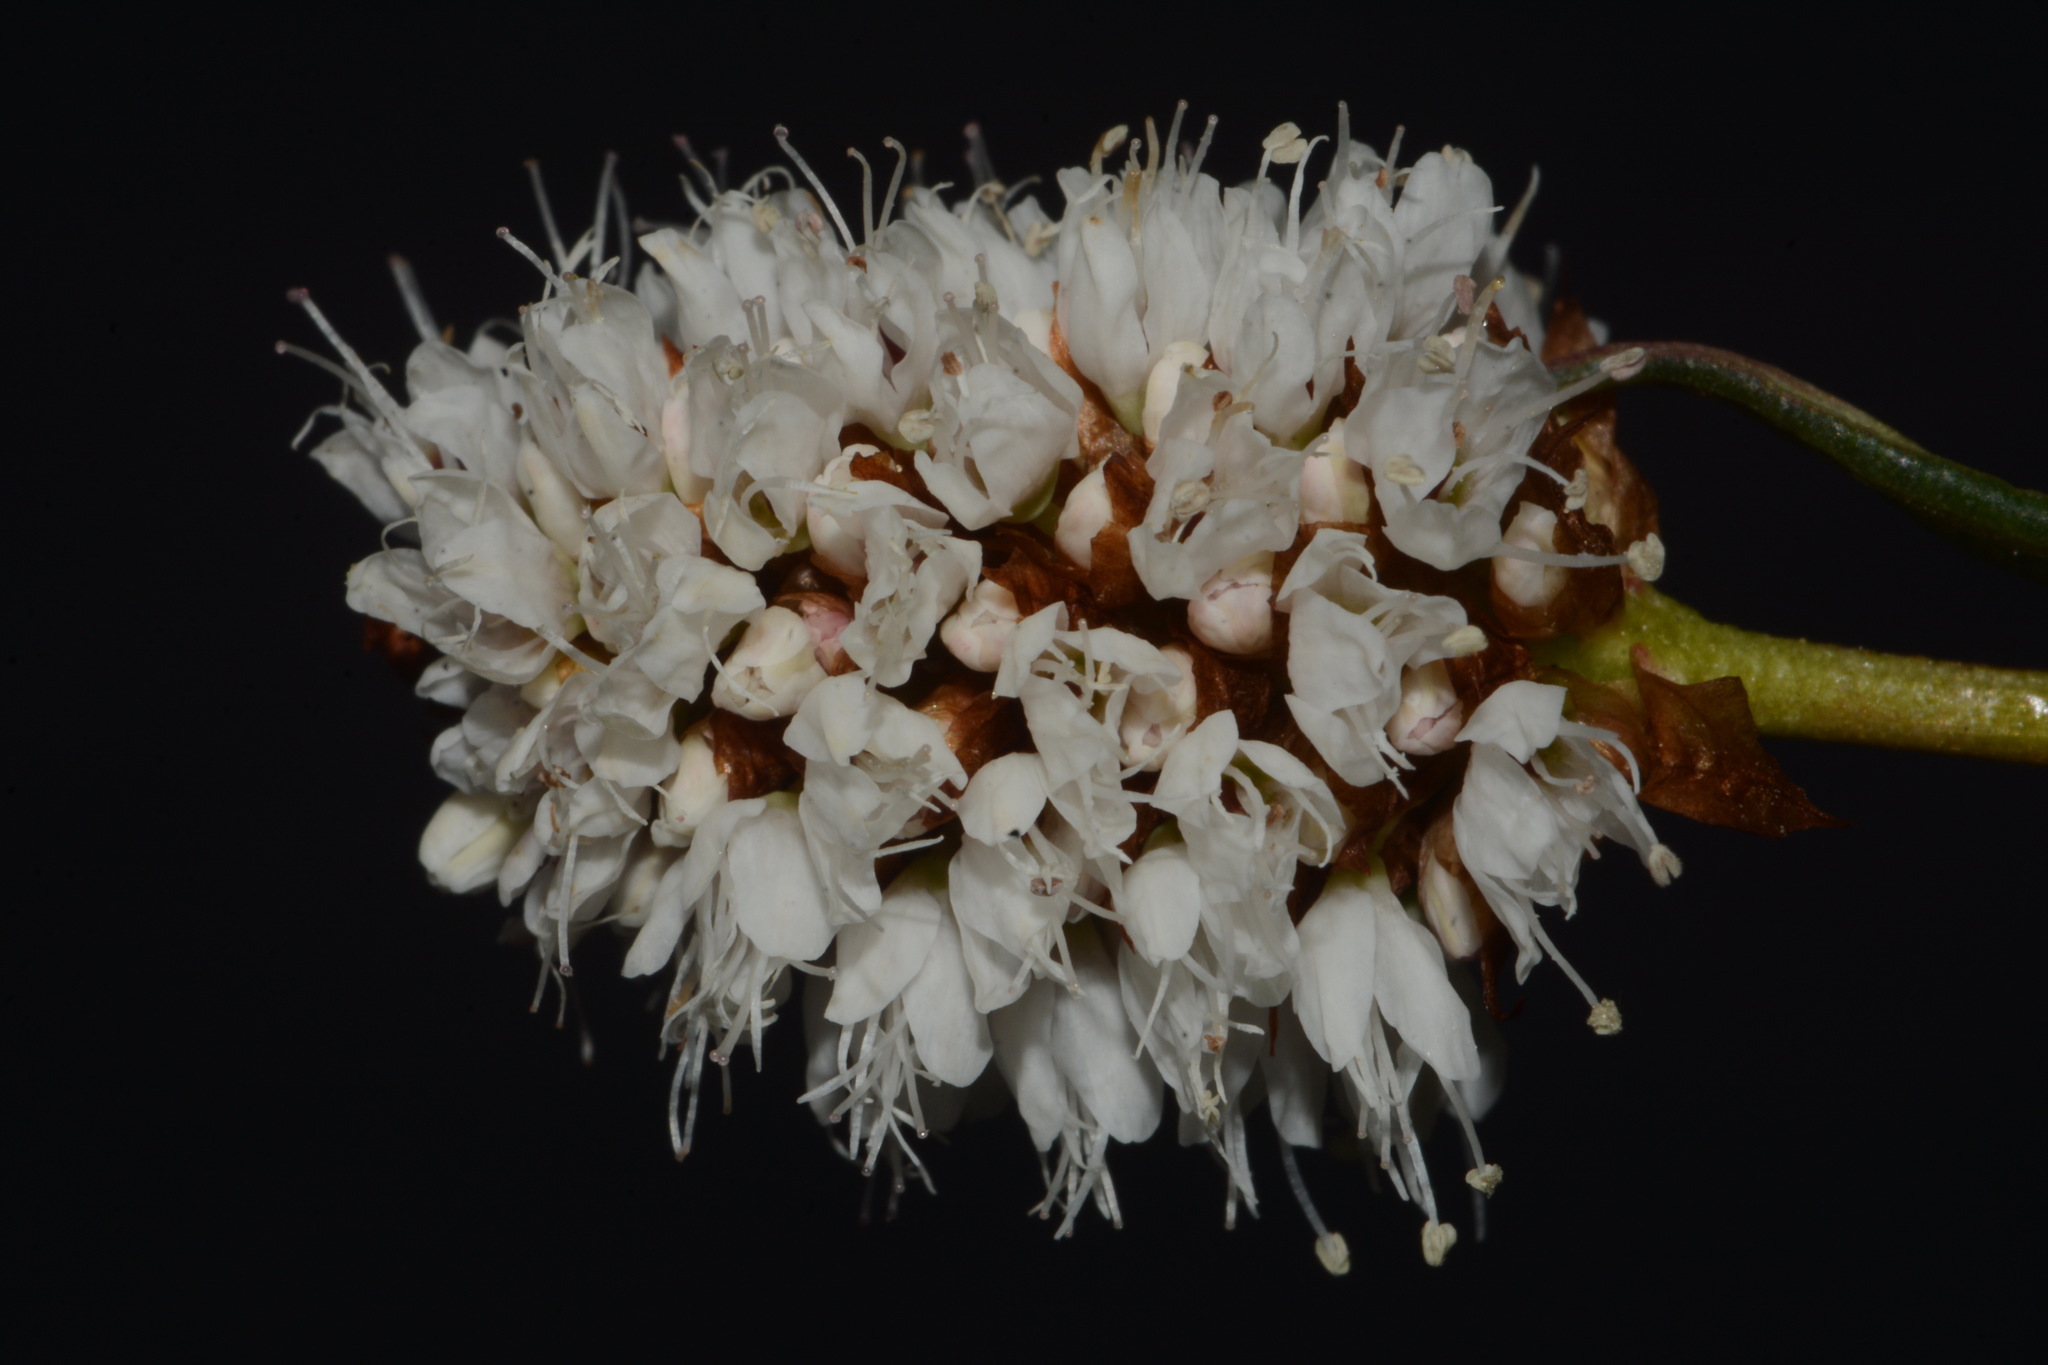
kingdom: Plantae
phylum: Tracheophyta
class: Magnoliopsida
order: Caryophyllales
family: Polygonaceae
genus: Bistorta
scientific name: Bistorta bistortoides
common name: American bistort
